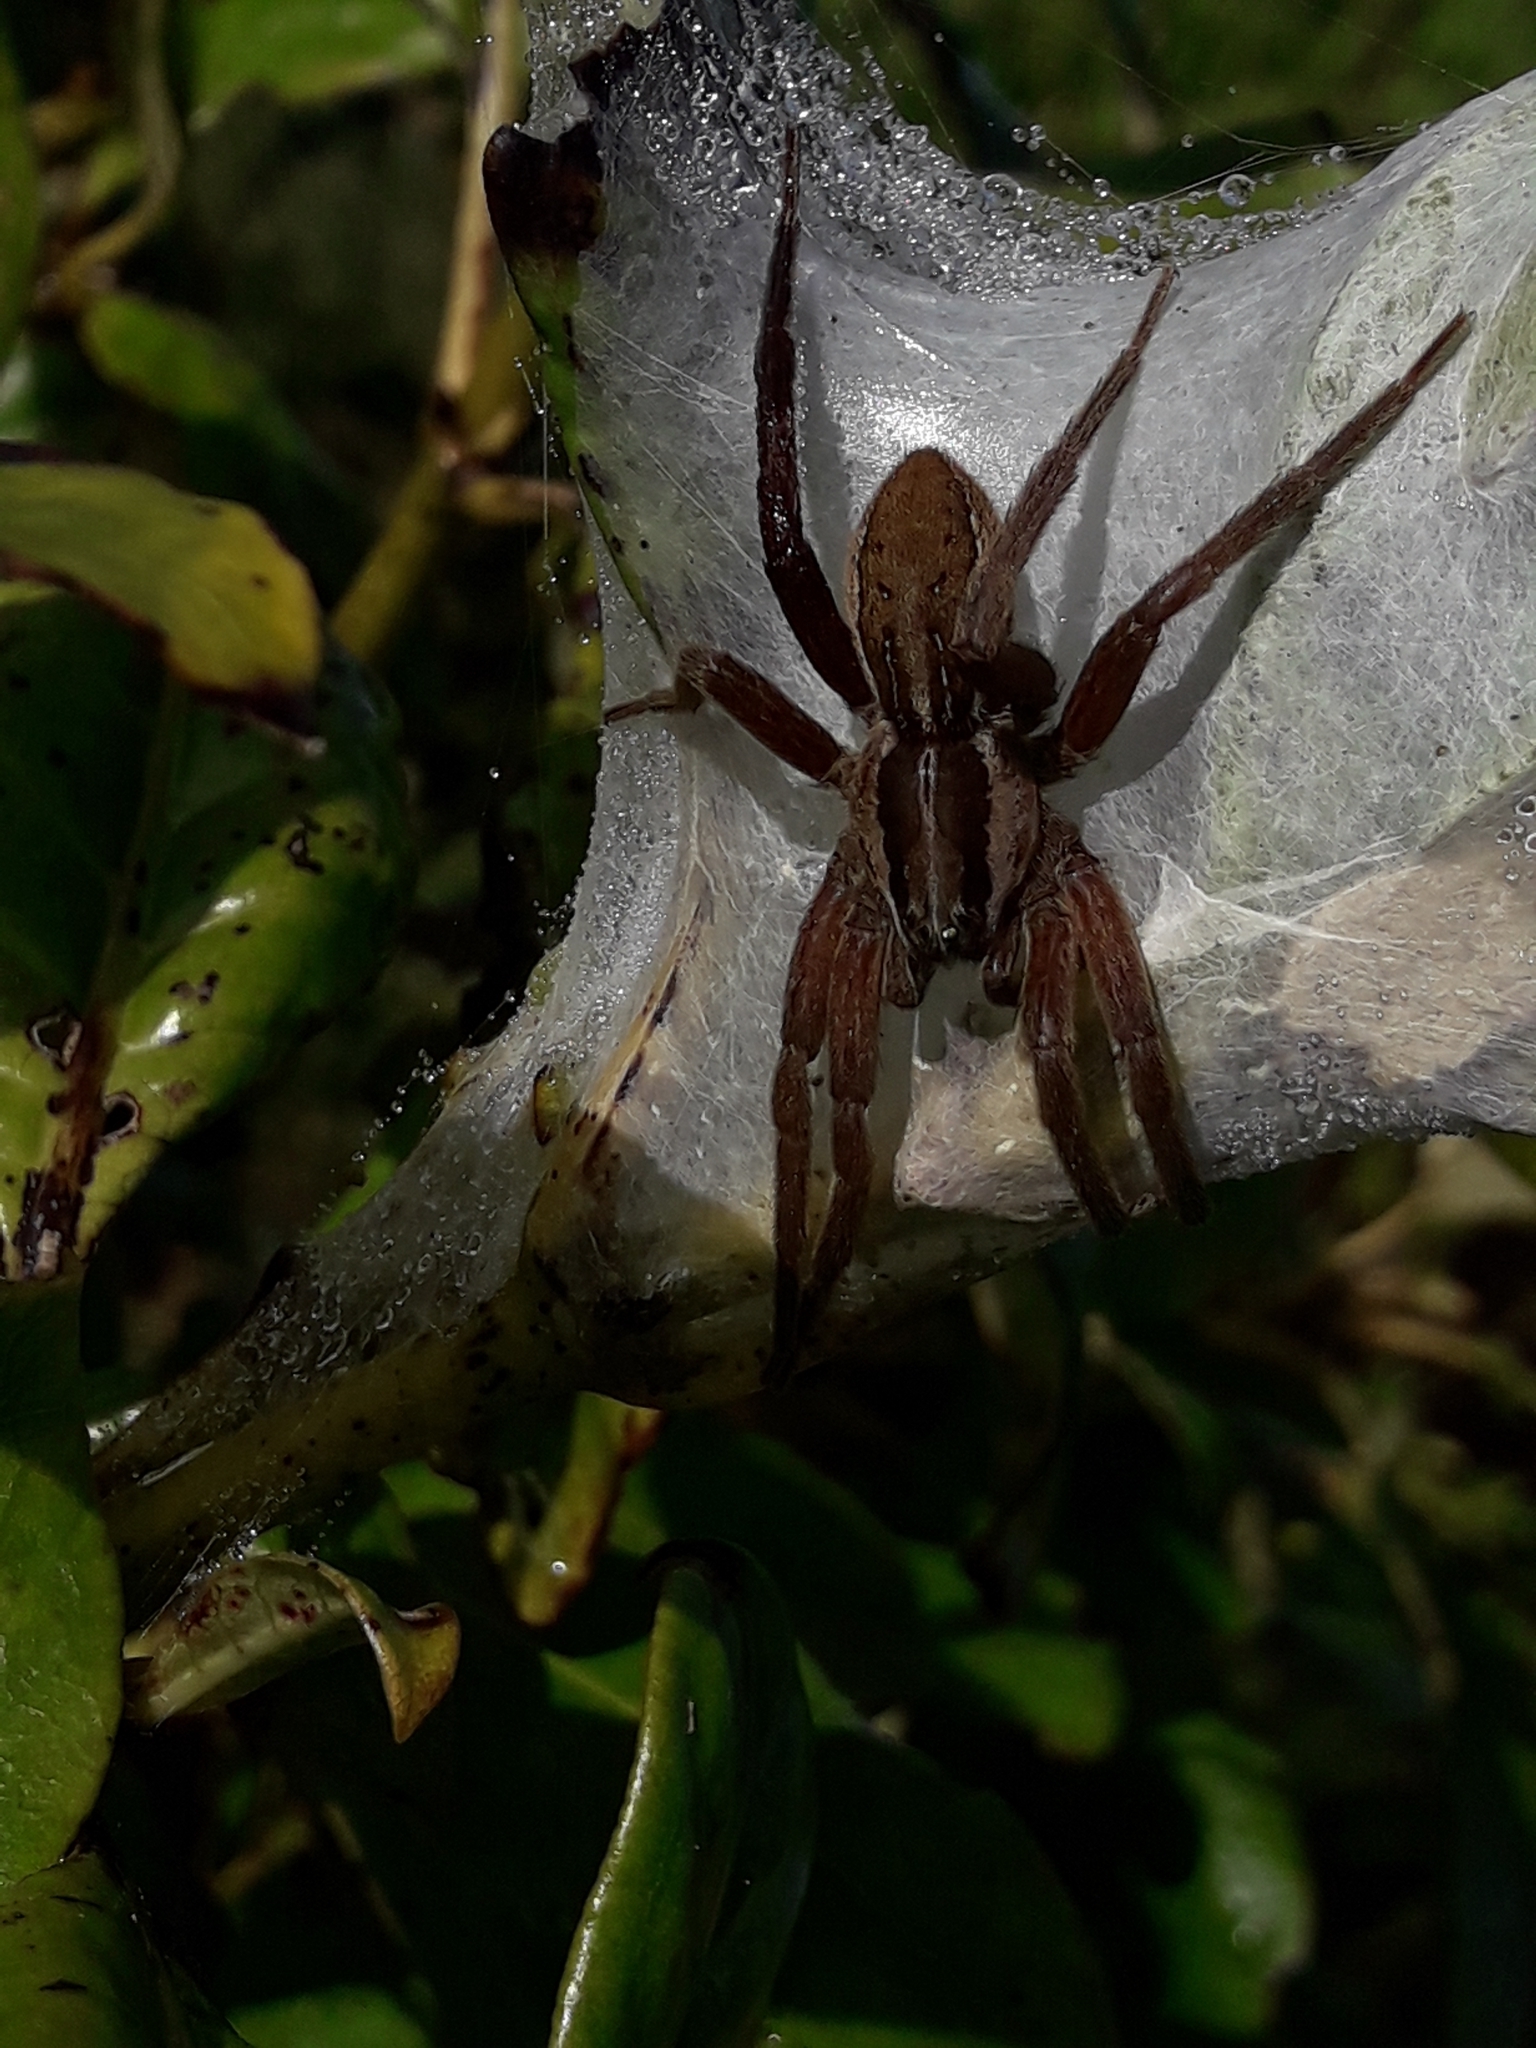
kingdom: Animalia
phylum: Arthropoda
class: Arachnida
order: Araneae
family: Pisauridae
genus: Dolomedes
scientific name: Dolomedes minor
